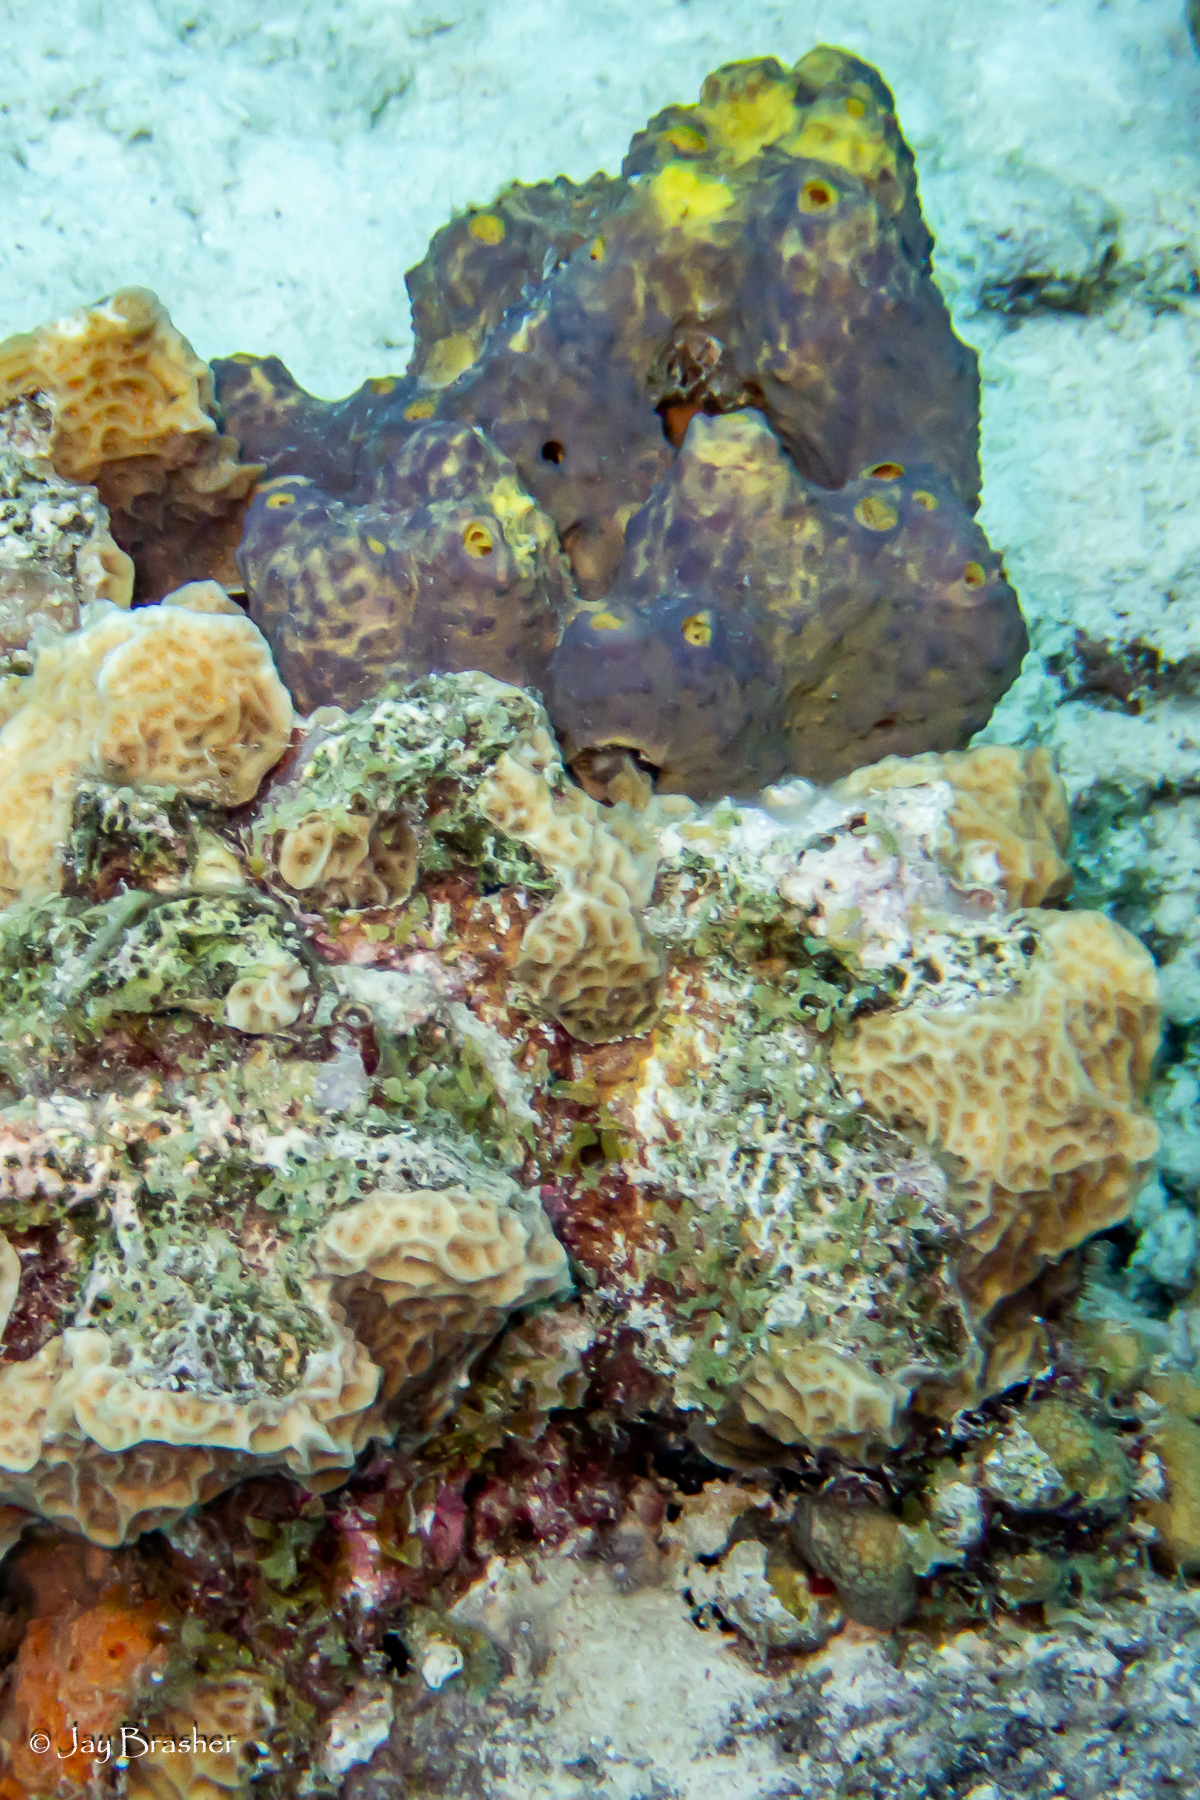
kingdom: Animalia
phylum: Porifera
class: Demospongiae
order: Verongiida
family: Aplysinidae
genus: Aiolochroia
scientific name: Aiolochroia crassa
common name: Branching tube sponge
